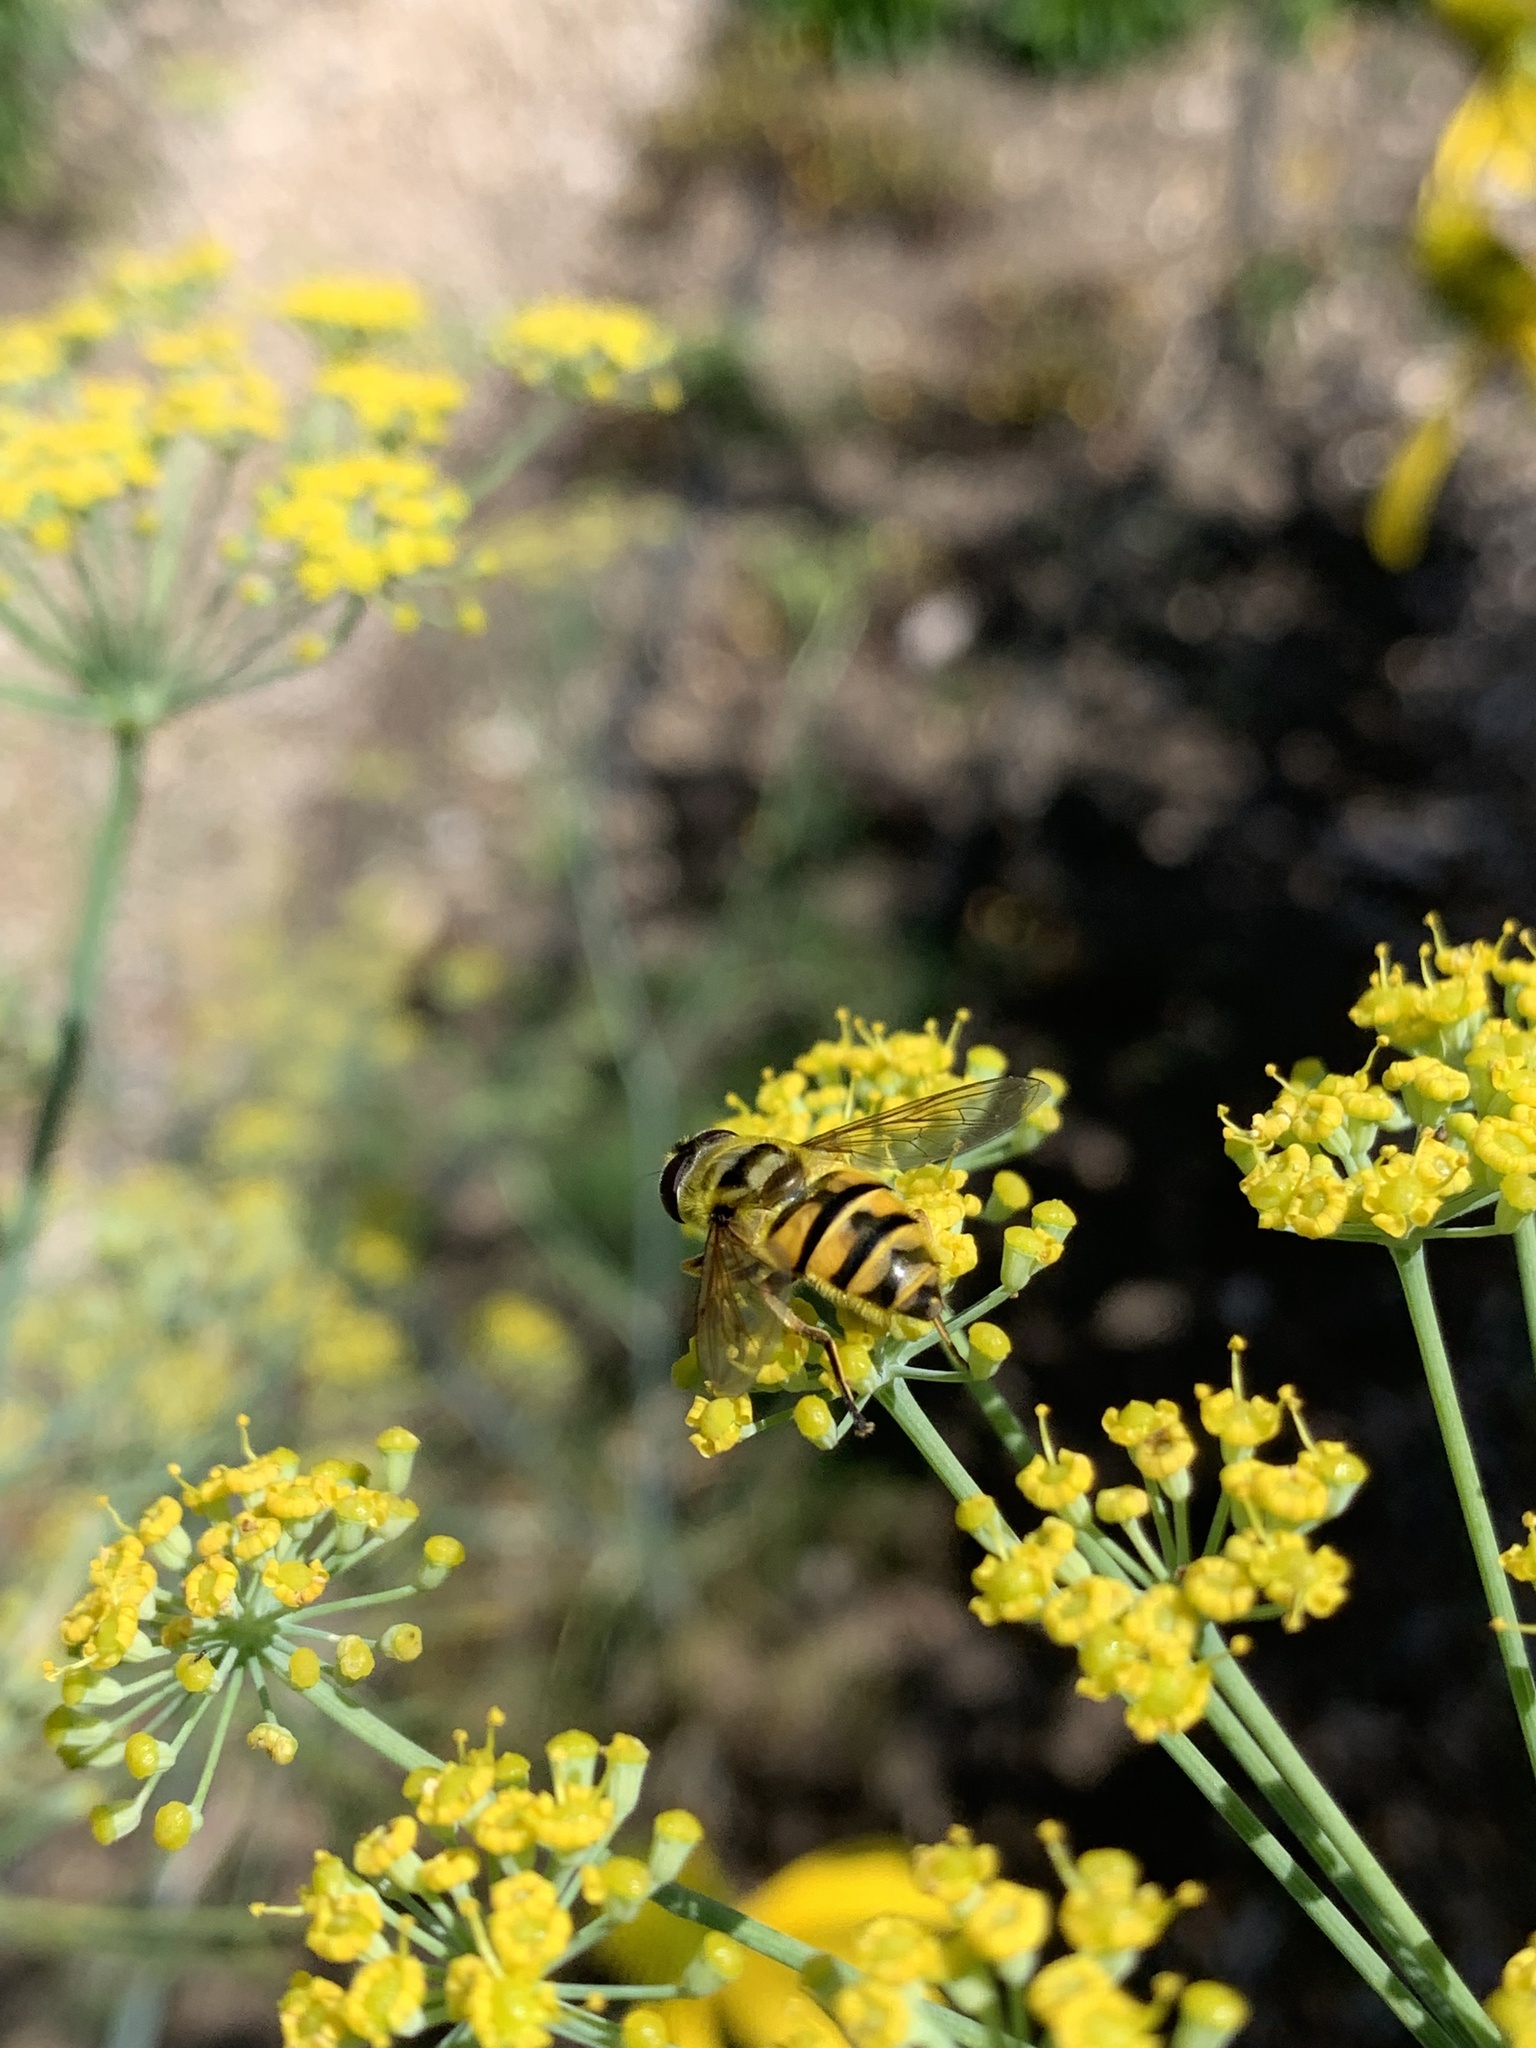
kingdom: Animalia
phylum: Arthropoda
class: Insecta
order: Diptera
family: Syrphidae
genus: Myathropa
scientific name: Myathropa florea
